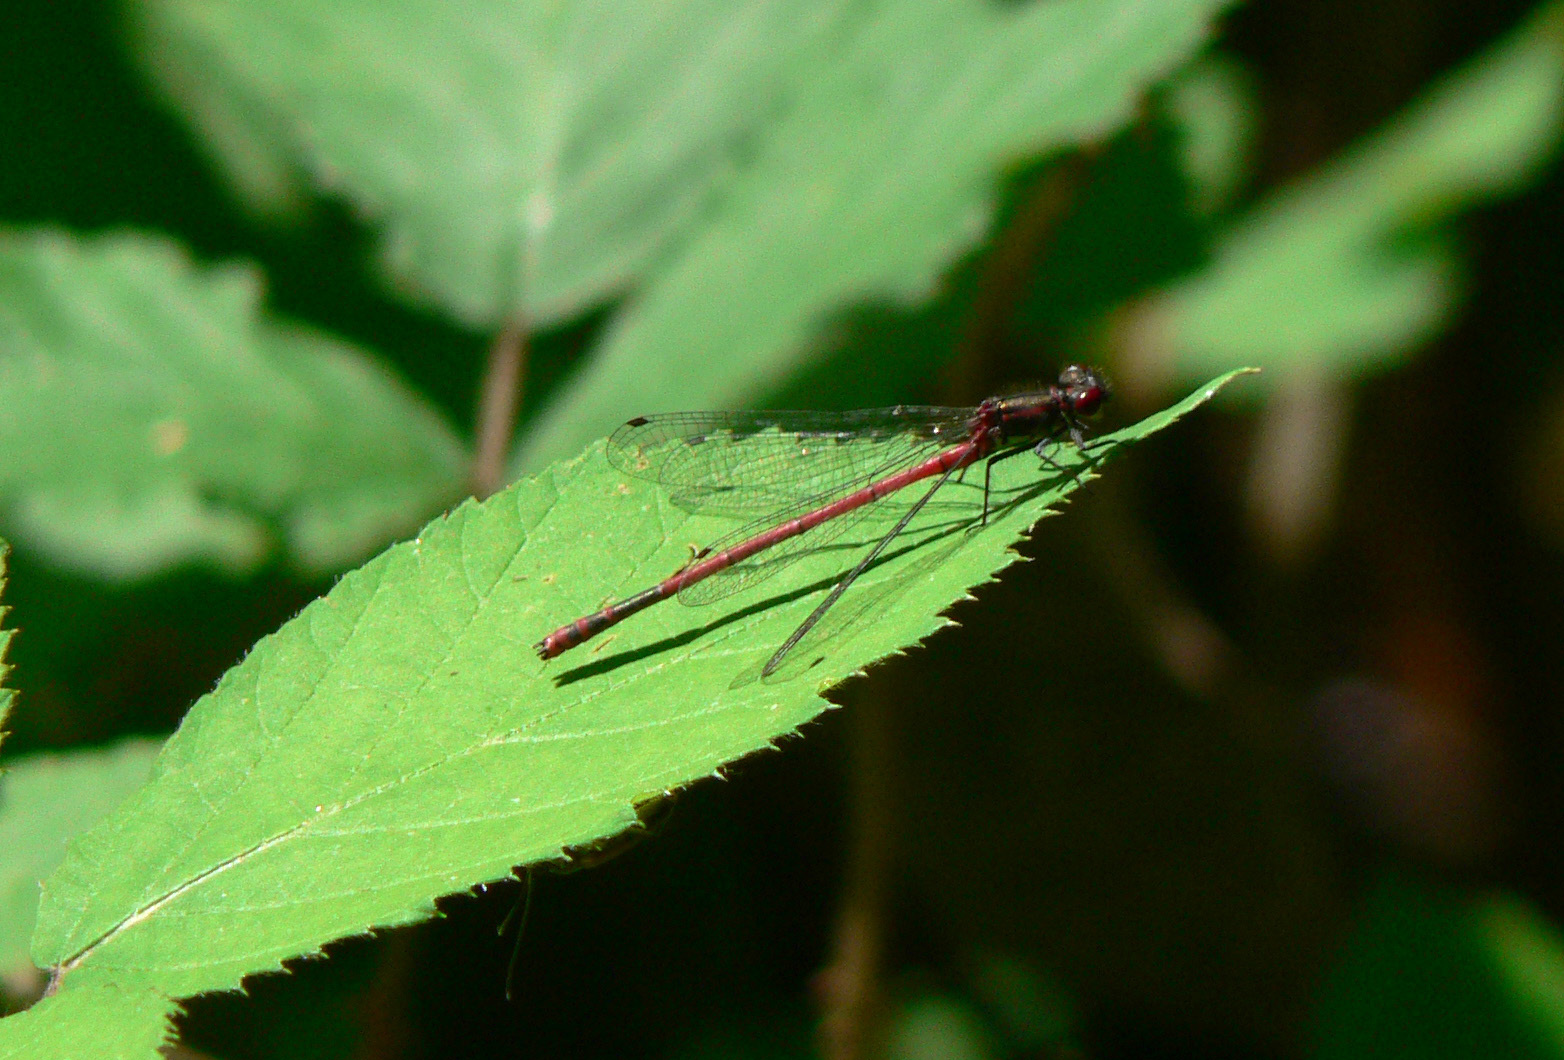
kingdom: Animalia
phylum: Arthropoda
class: Insecta
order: Odonata
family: Coenagrionidae
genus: Pyrrhosoma
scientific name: Pyrrhosoma nymphula
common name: Large red damsel
